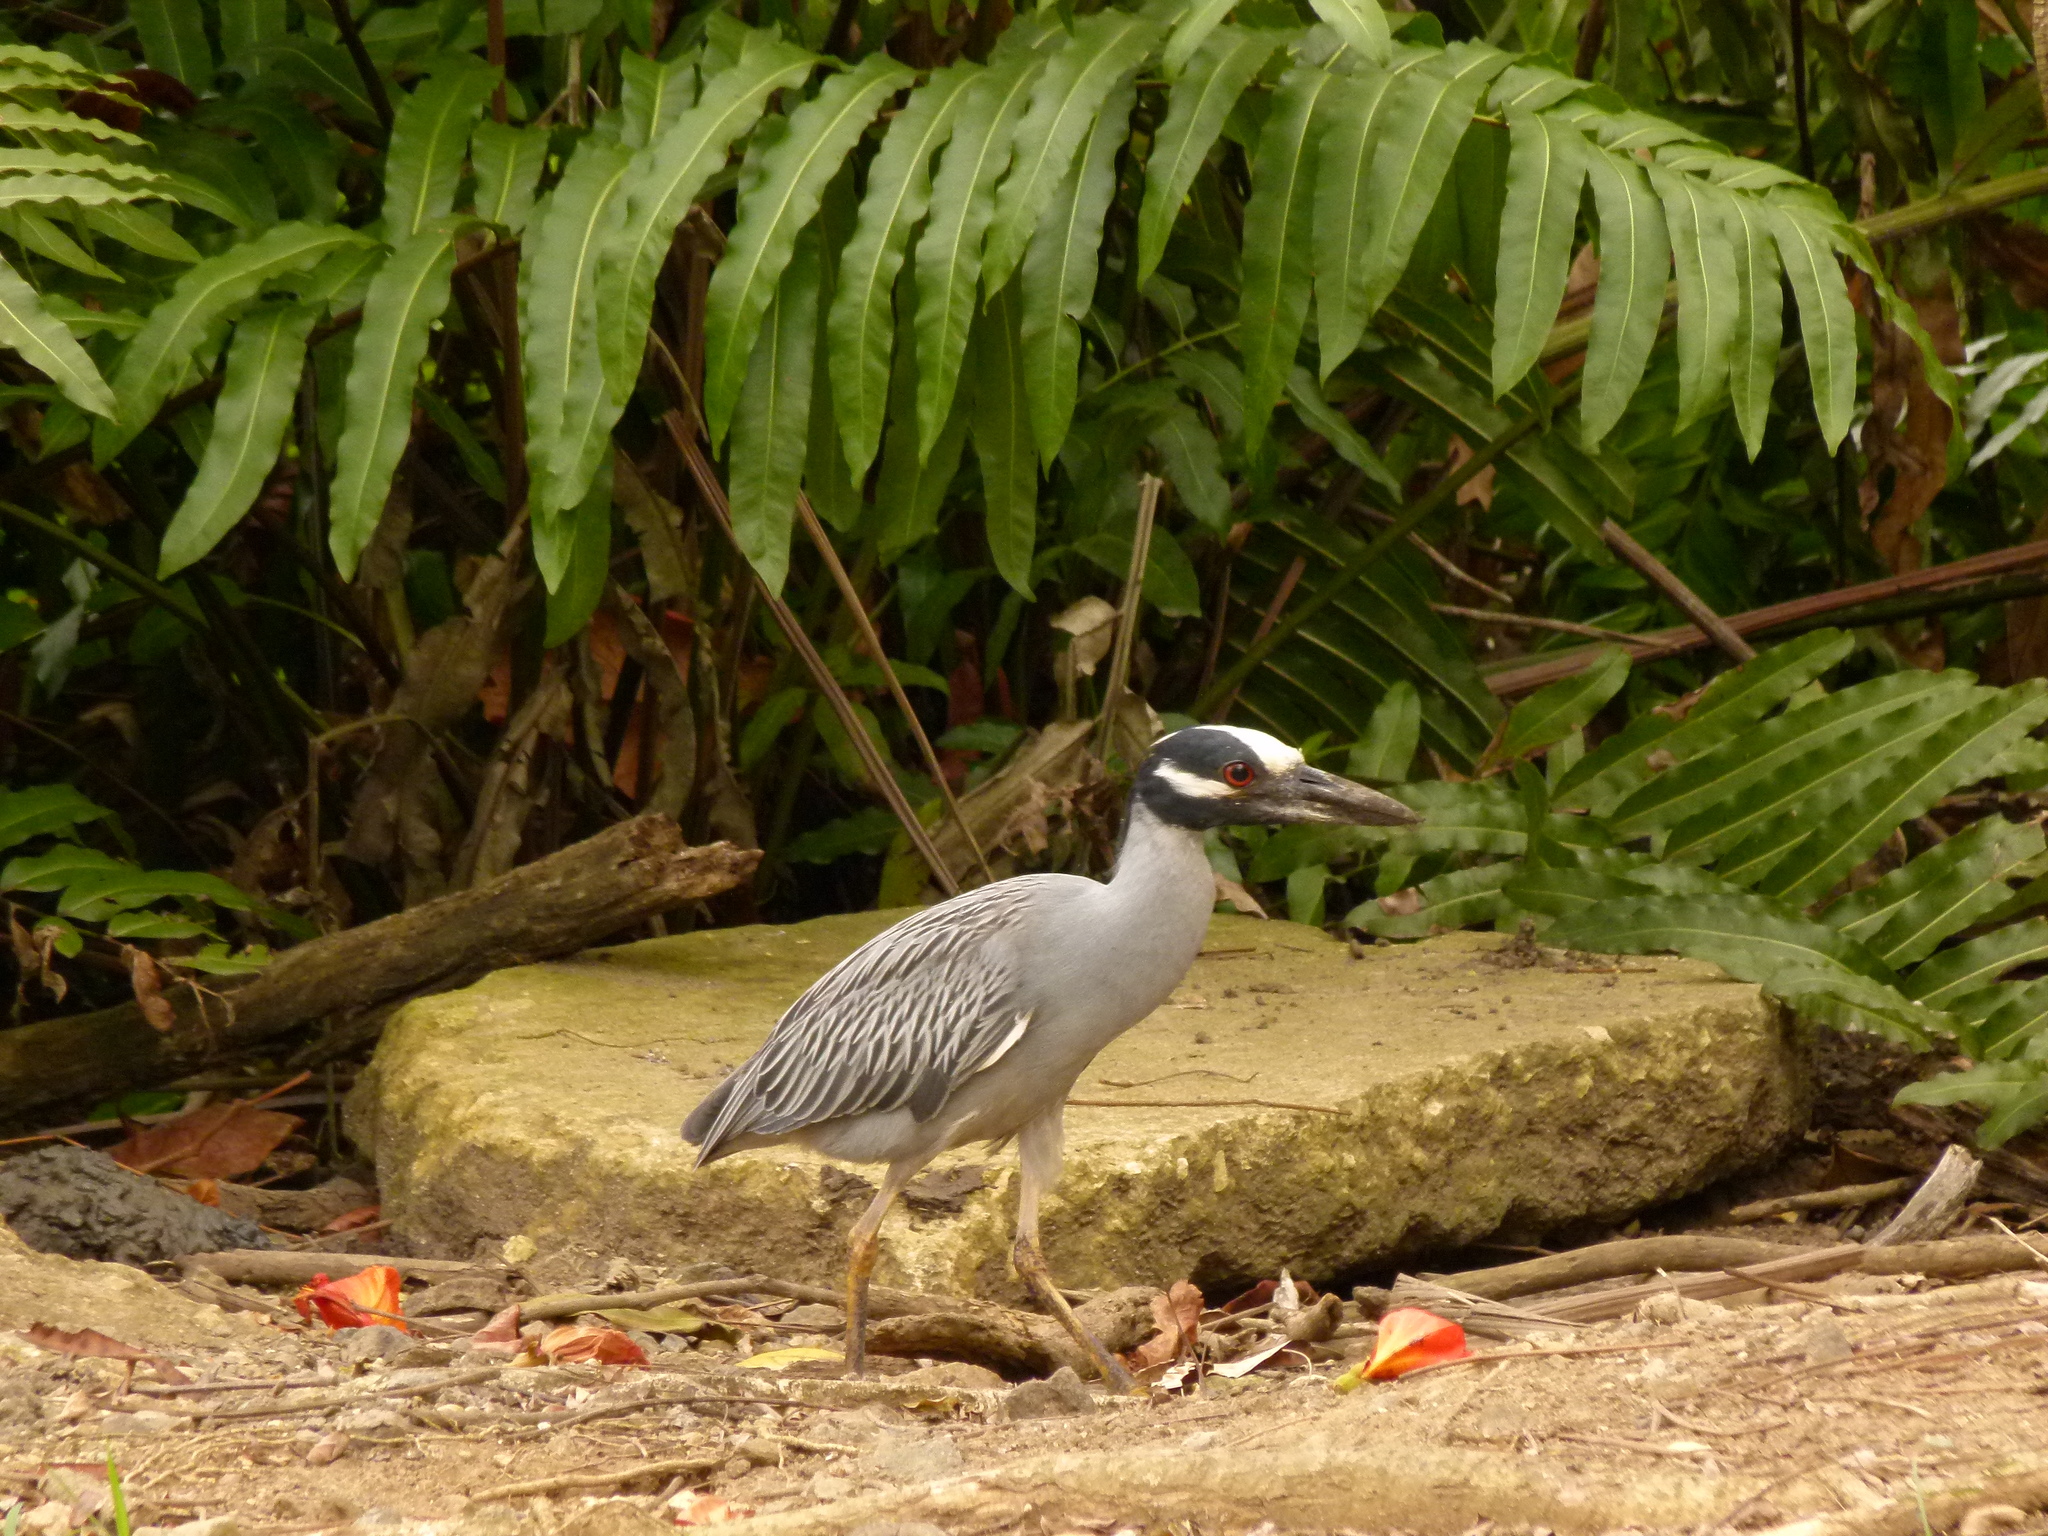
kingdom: Animalia
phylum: Chordata
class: Aves
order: Pelecaniformes
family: Ardeidae
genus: Nyctanassa
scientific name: Nyctanassa violacea
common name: Yellow-crowned night heron
